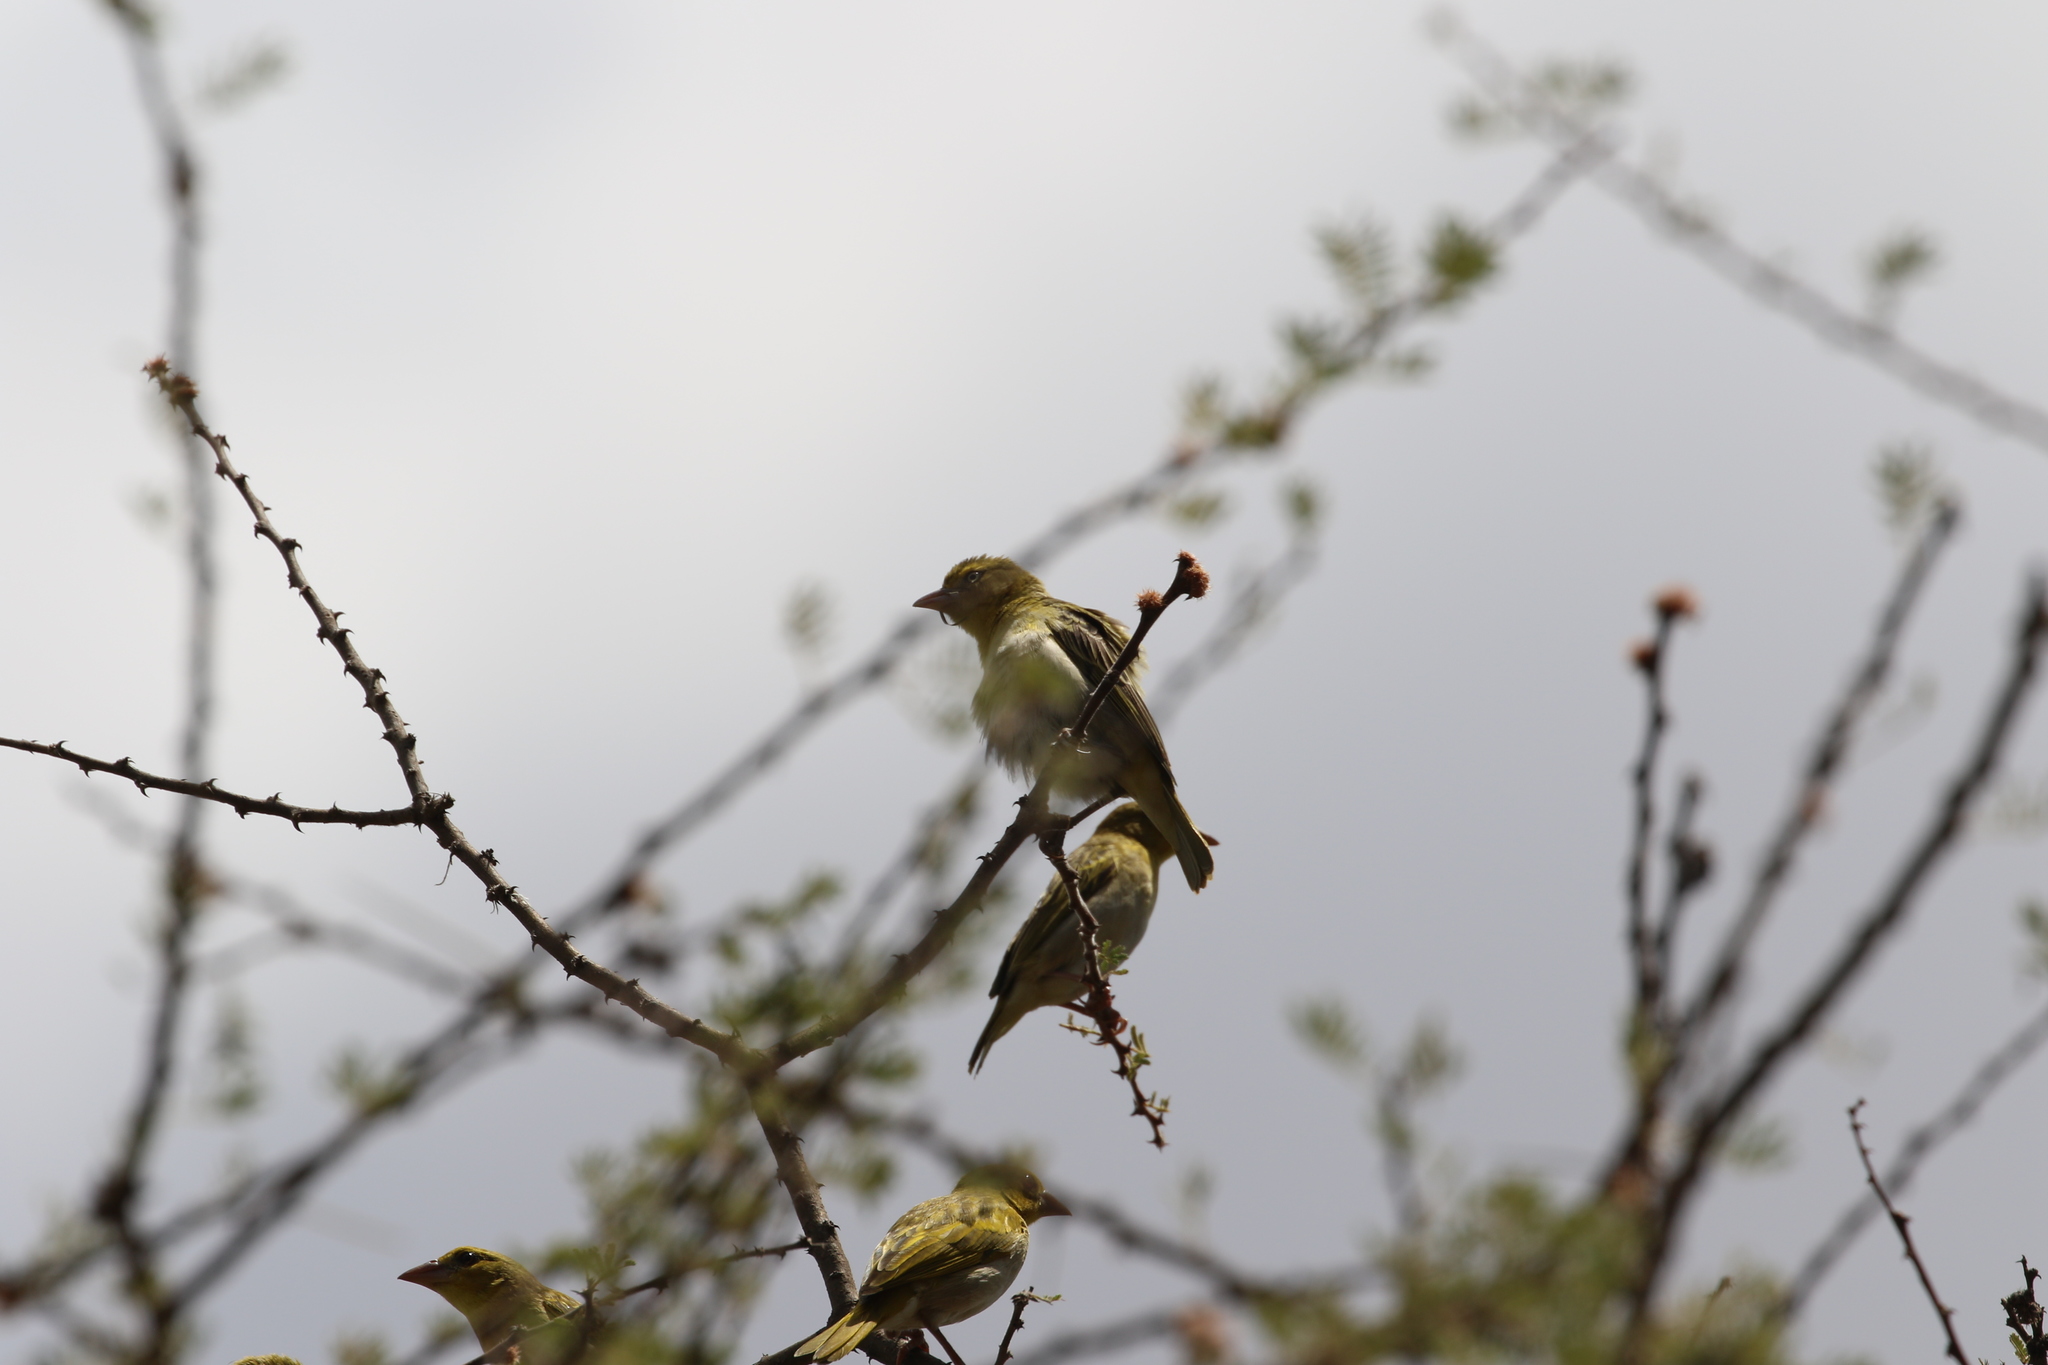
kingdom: Animalia
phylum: Chordata
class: Aves
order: Passeriformes
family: Ploceidae
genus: Anaplectes
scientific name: Anaplectes rubriceps
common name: Red-headed weaver
